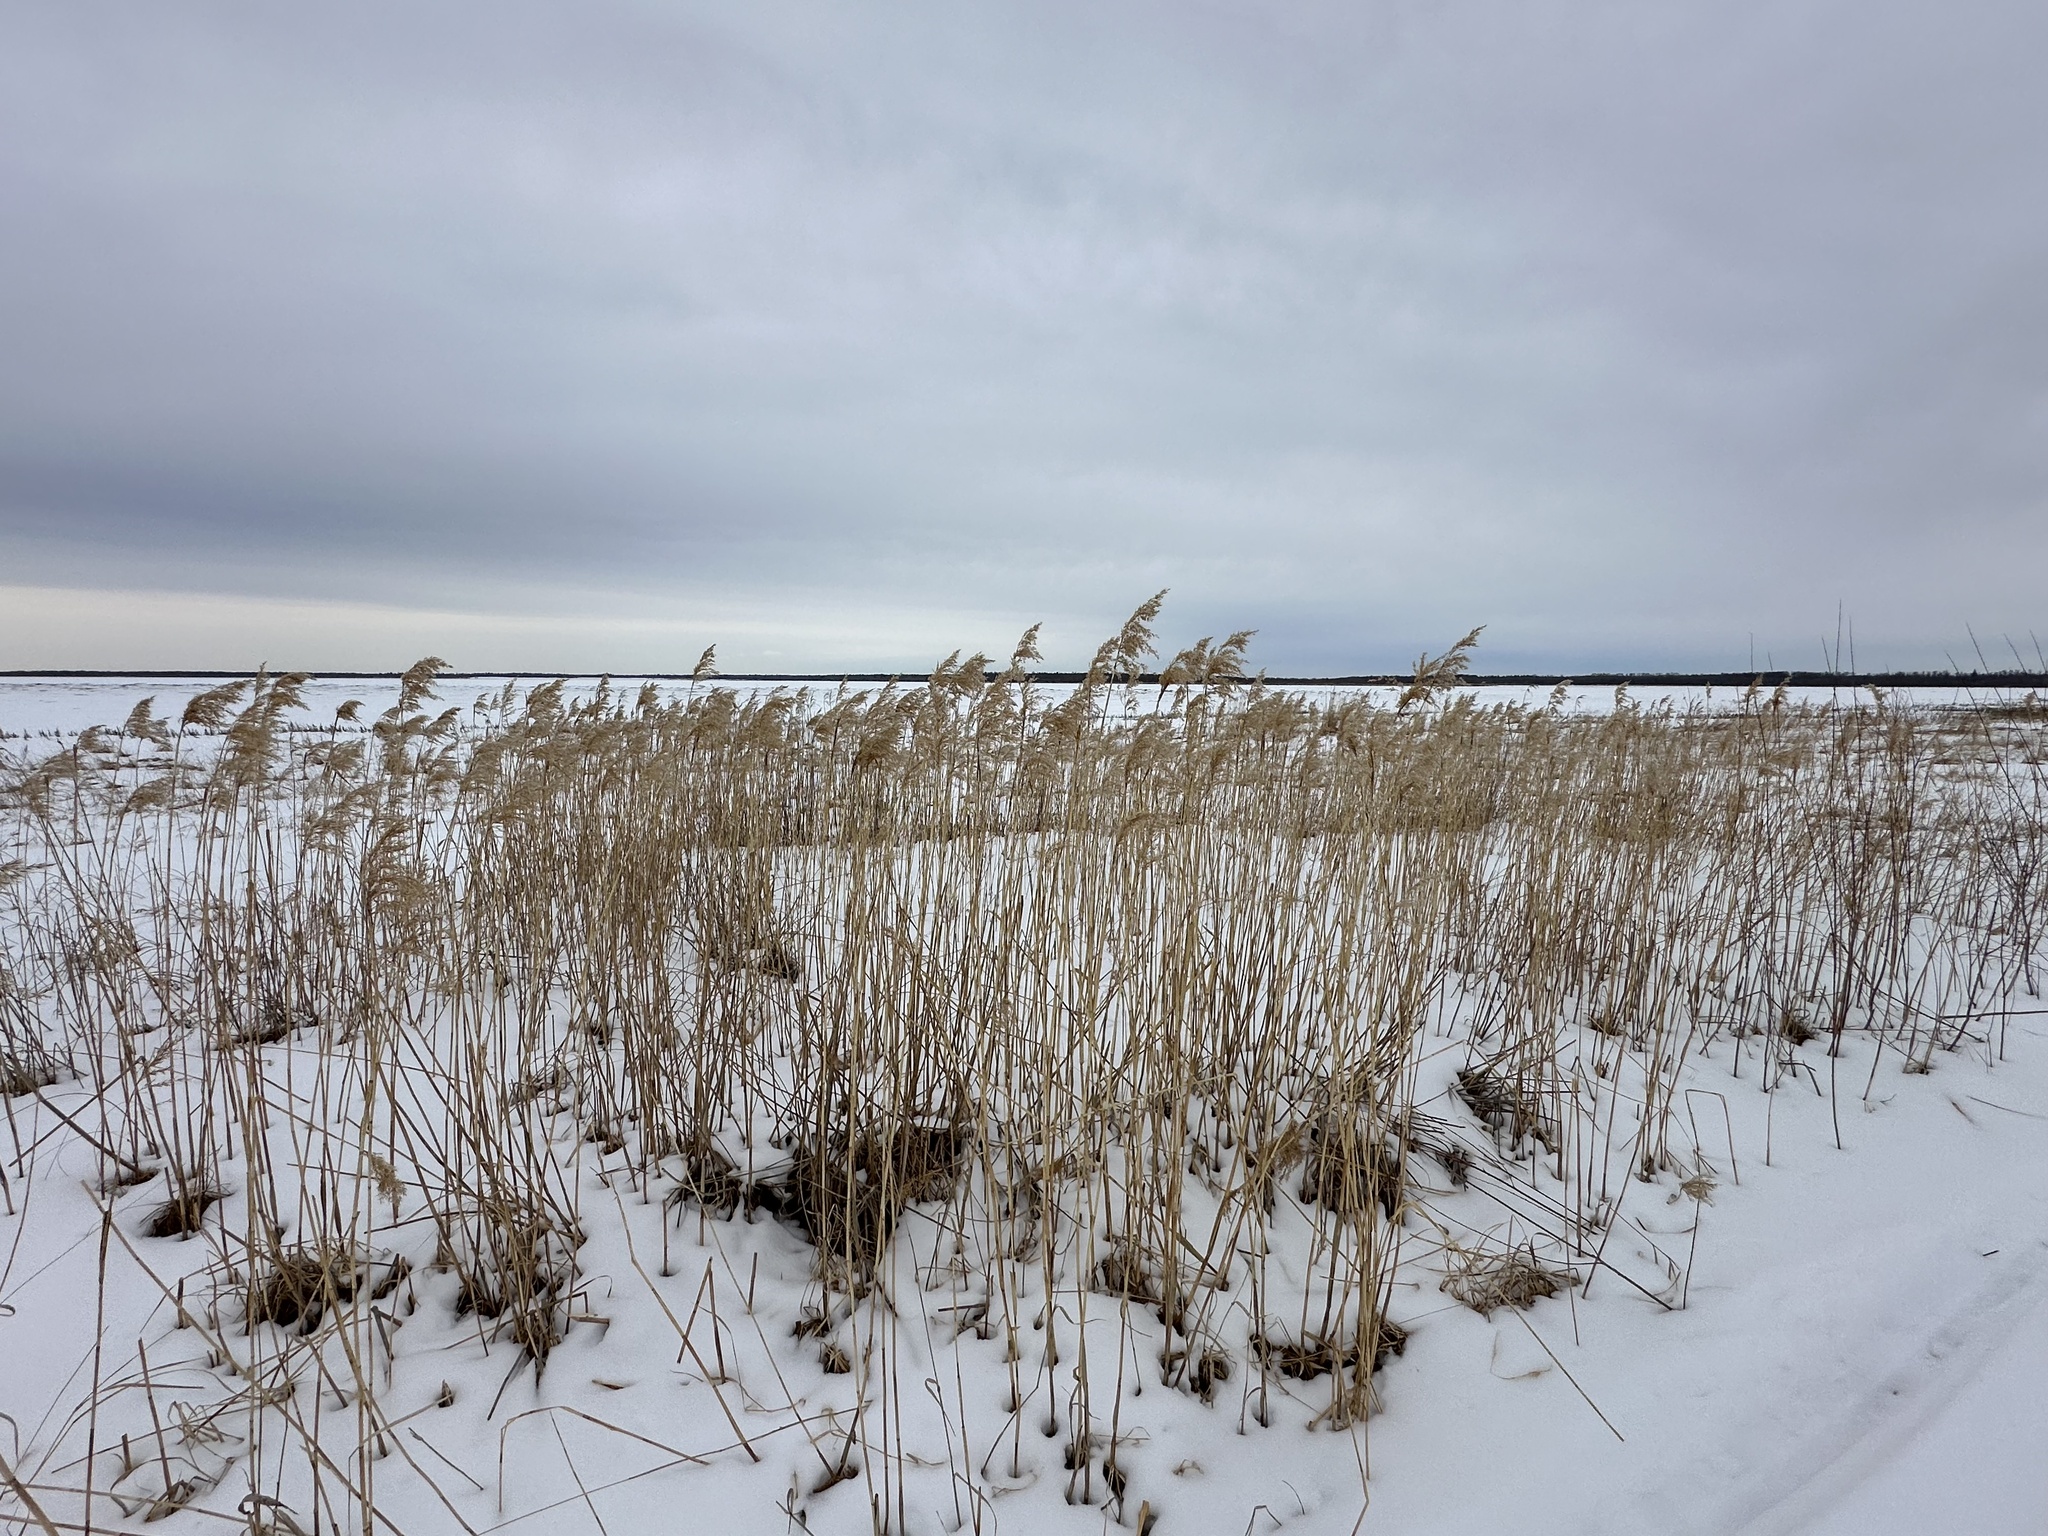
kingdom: Plantae
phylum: Tracheophyta
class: Liliopsida
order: Poales
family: Poaceae
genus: Phragmites
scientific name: Phragmites australis
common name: Common reed
